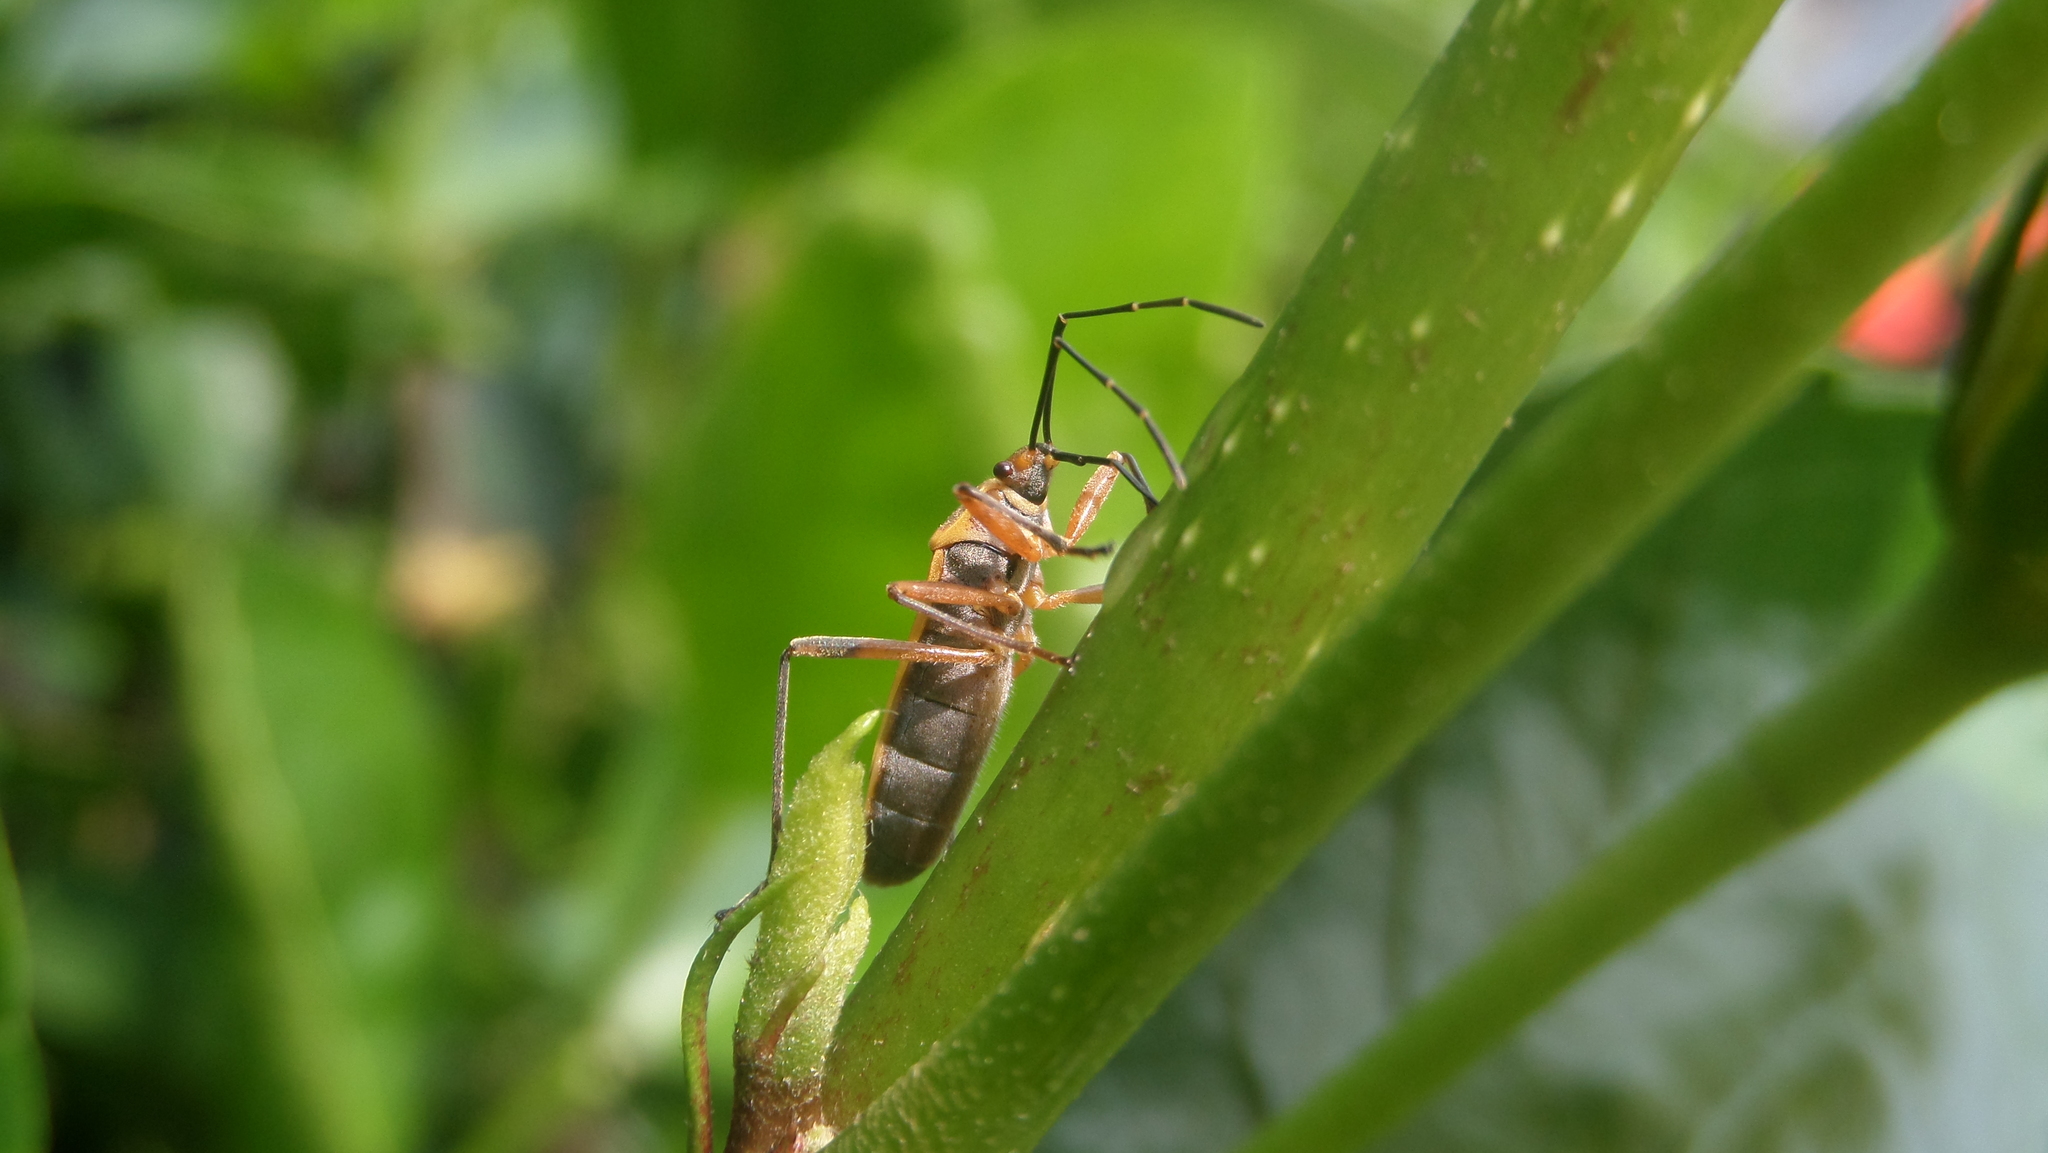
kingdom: Animalia
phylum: Arthropoda
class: Insecta
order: Hemiptera
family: Largidae
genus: Stenomacra
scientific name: Stenomacra marginella
